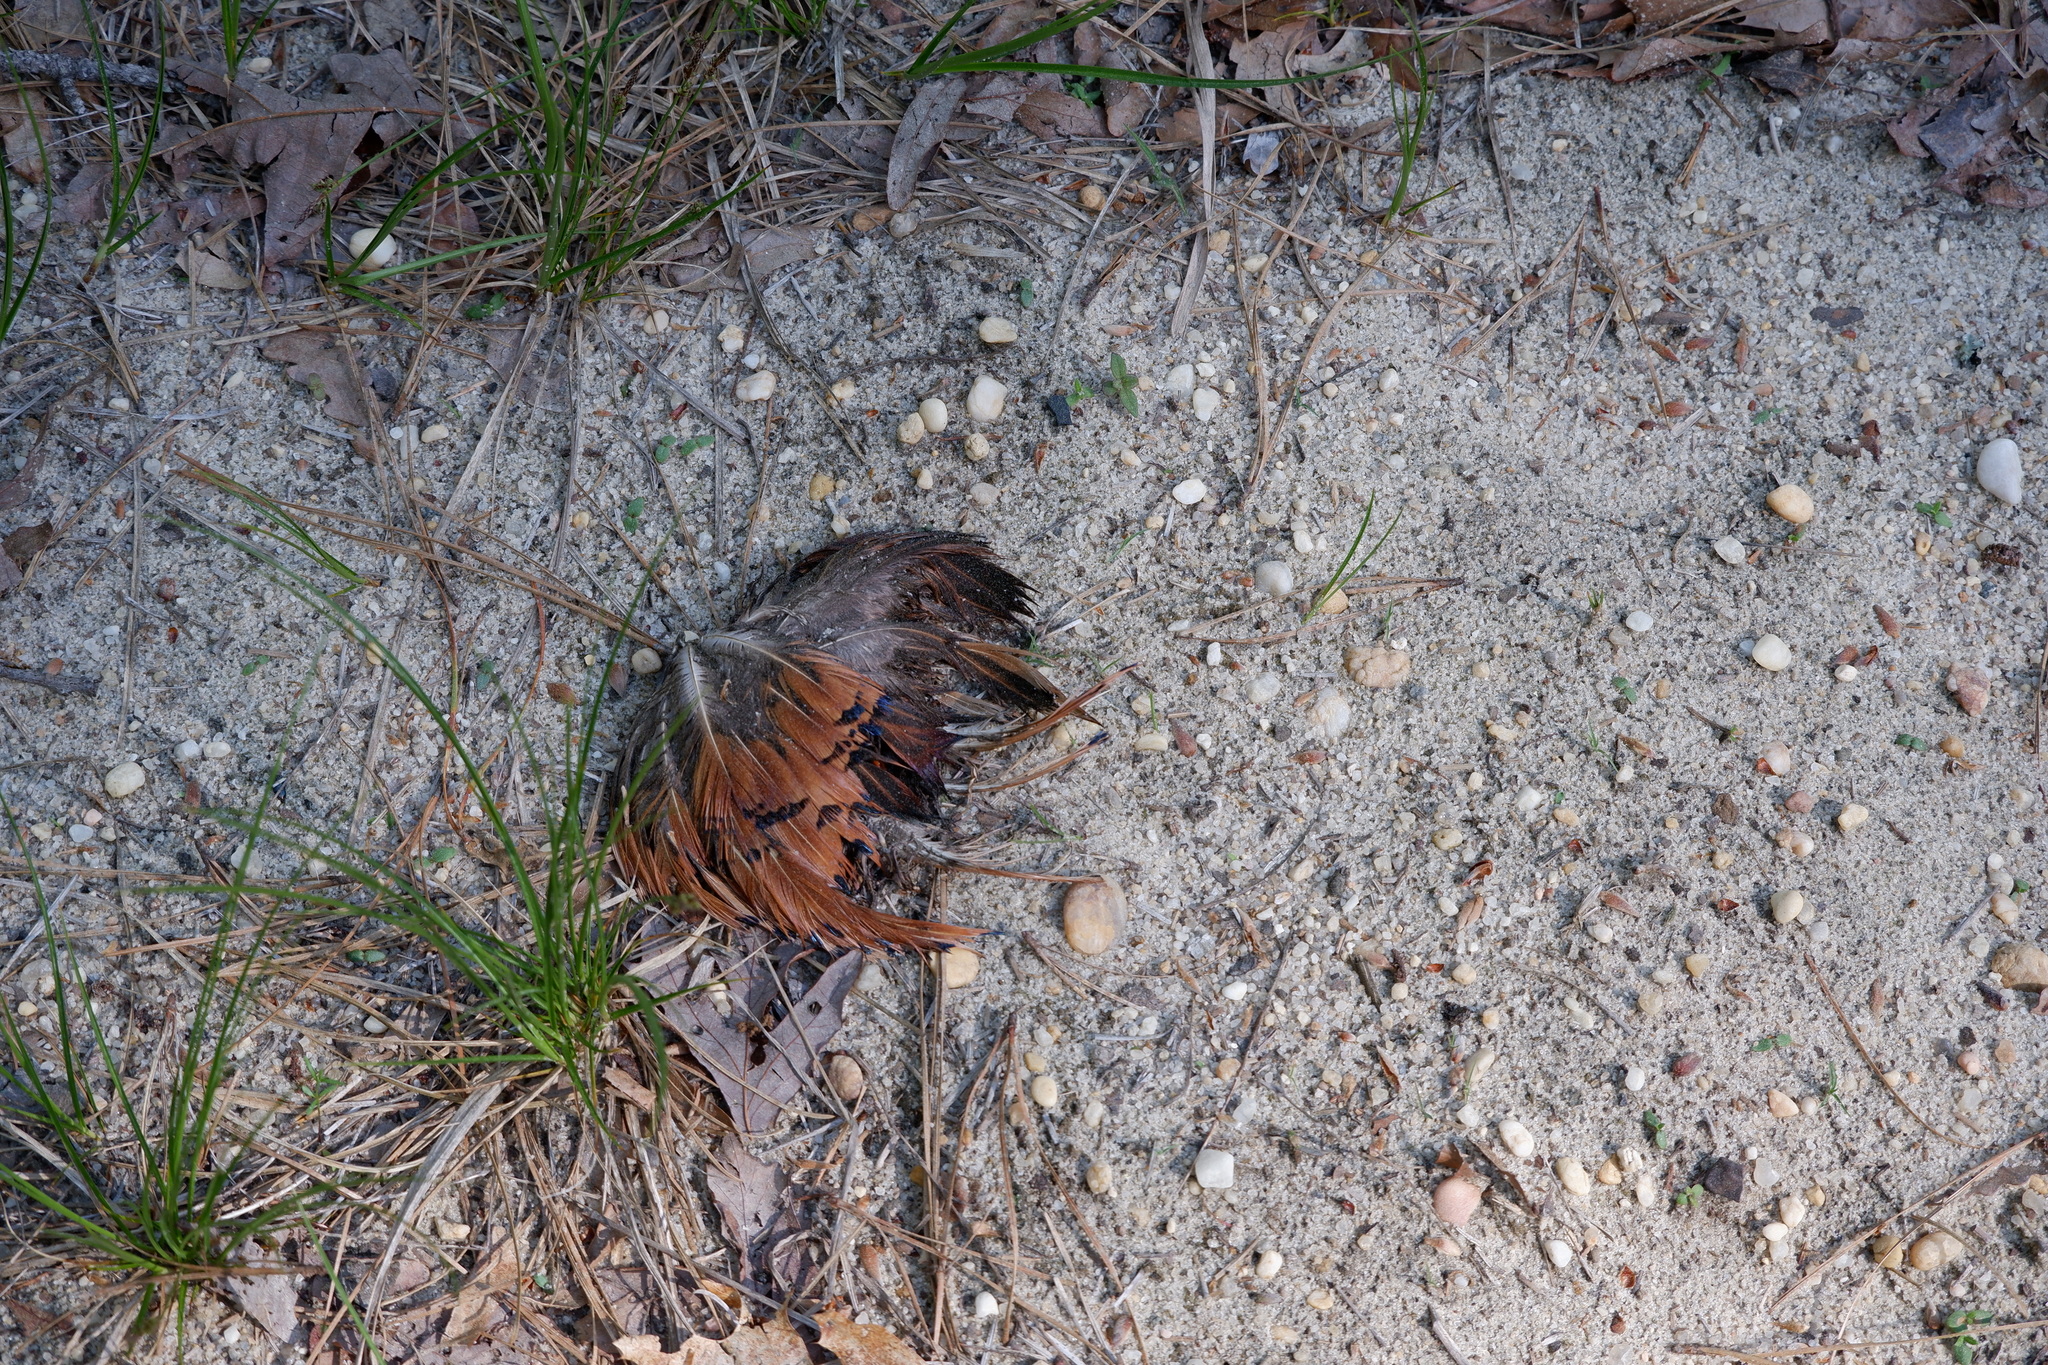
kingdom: Animalia
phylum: Chordata
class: Aves
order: Galliformes
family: Phasianidae
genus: Phasianus
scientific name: Phasianus colchicus
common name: Common pheasant
